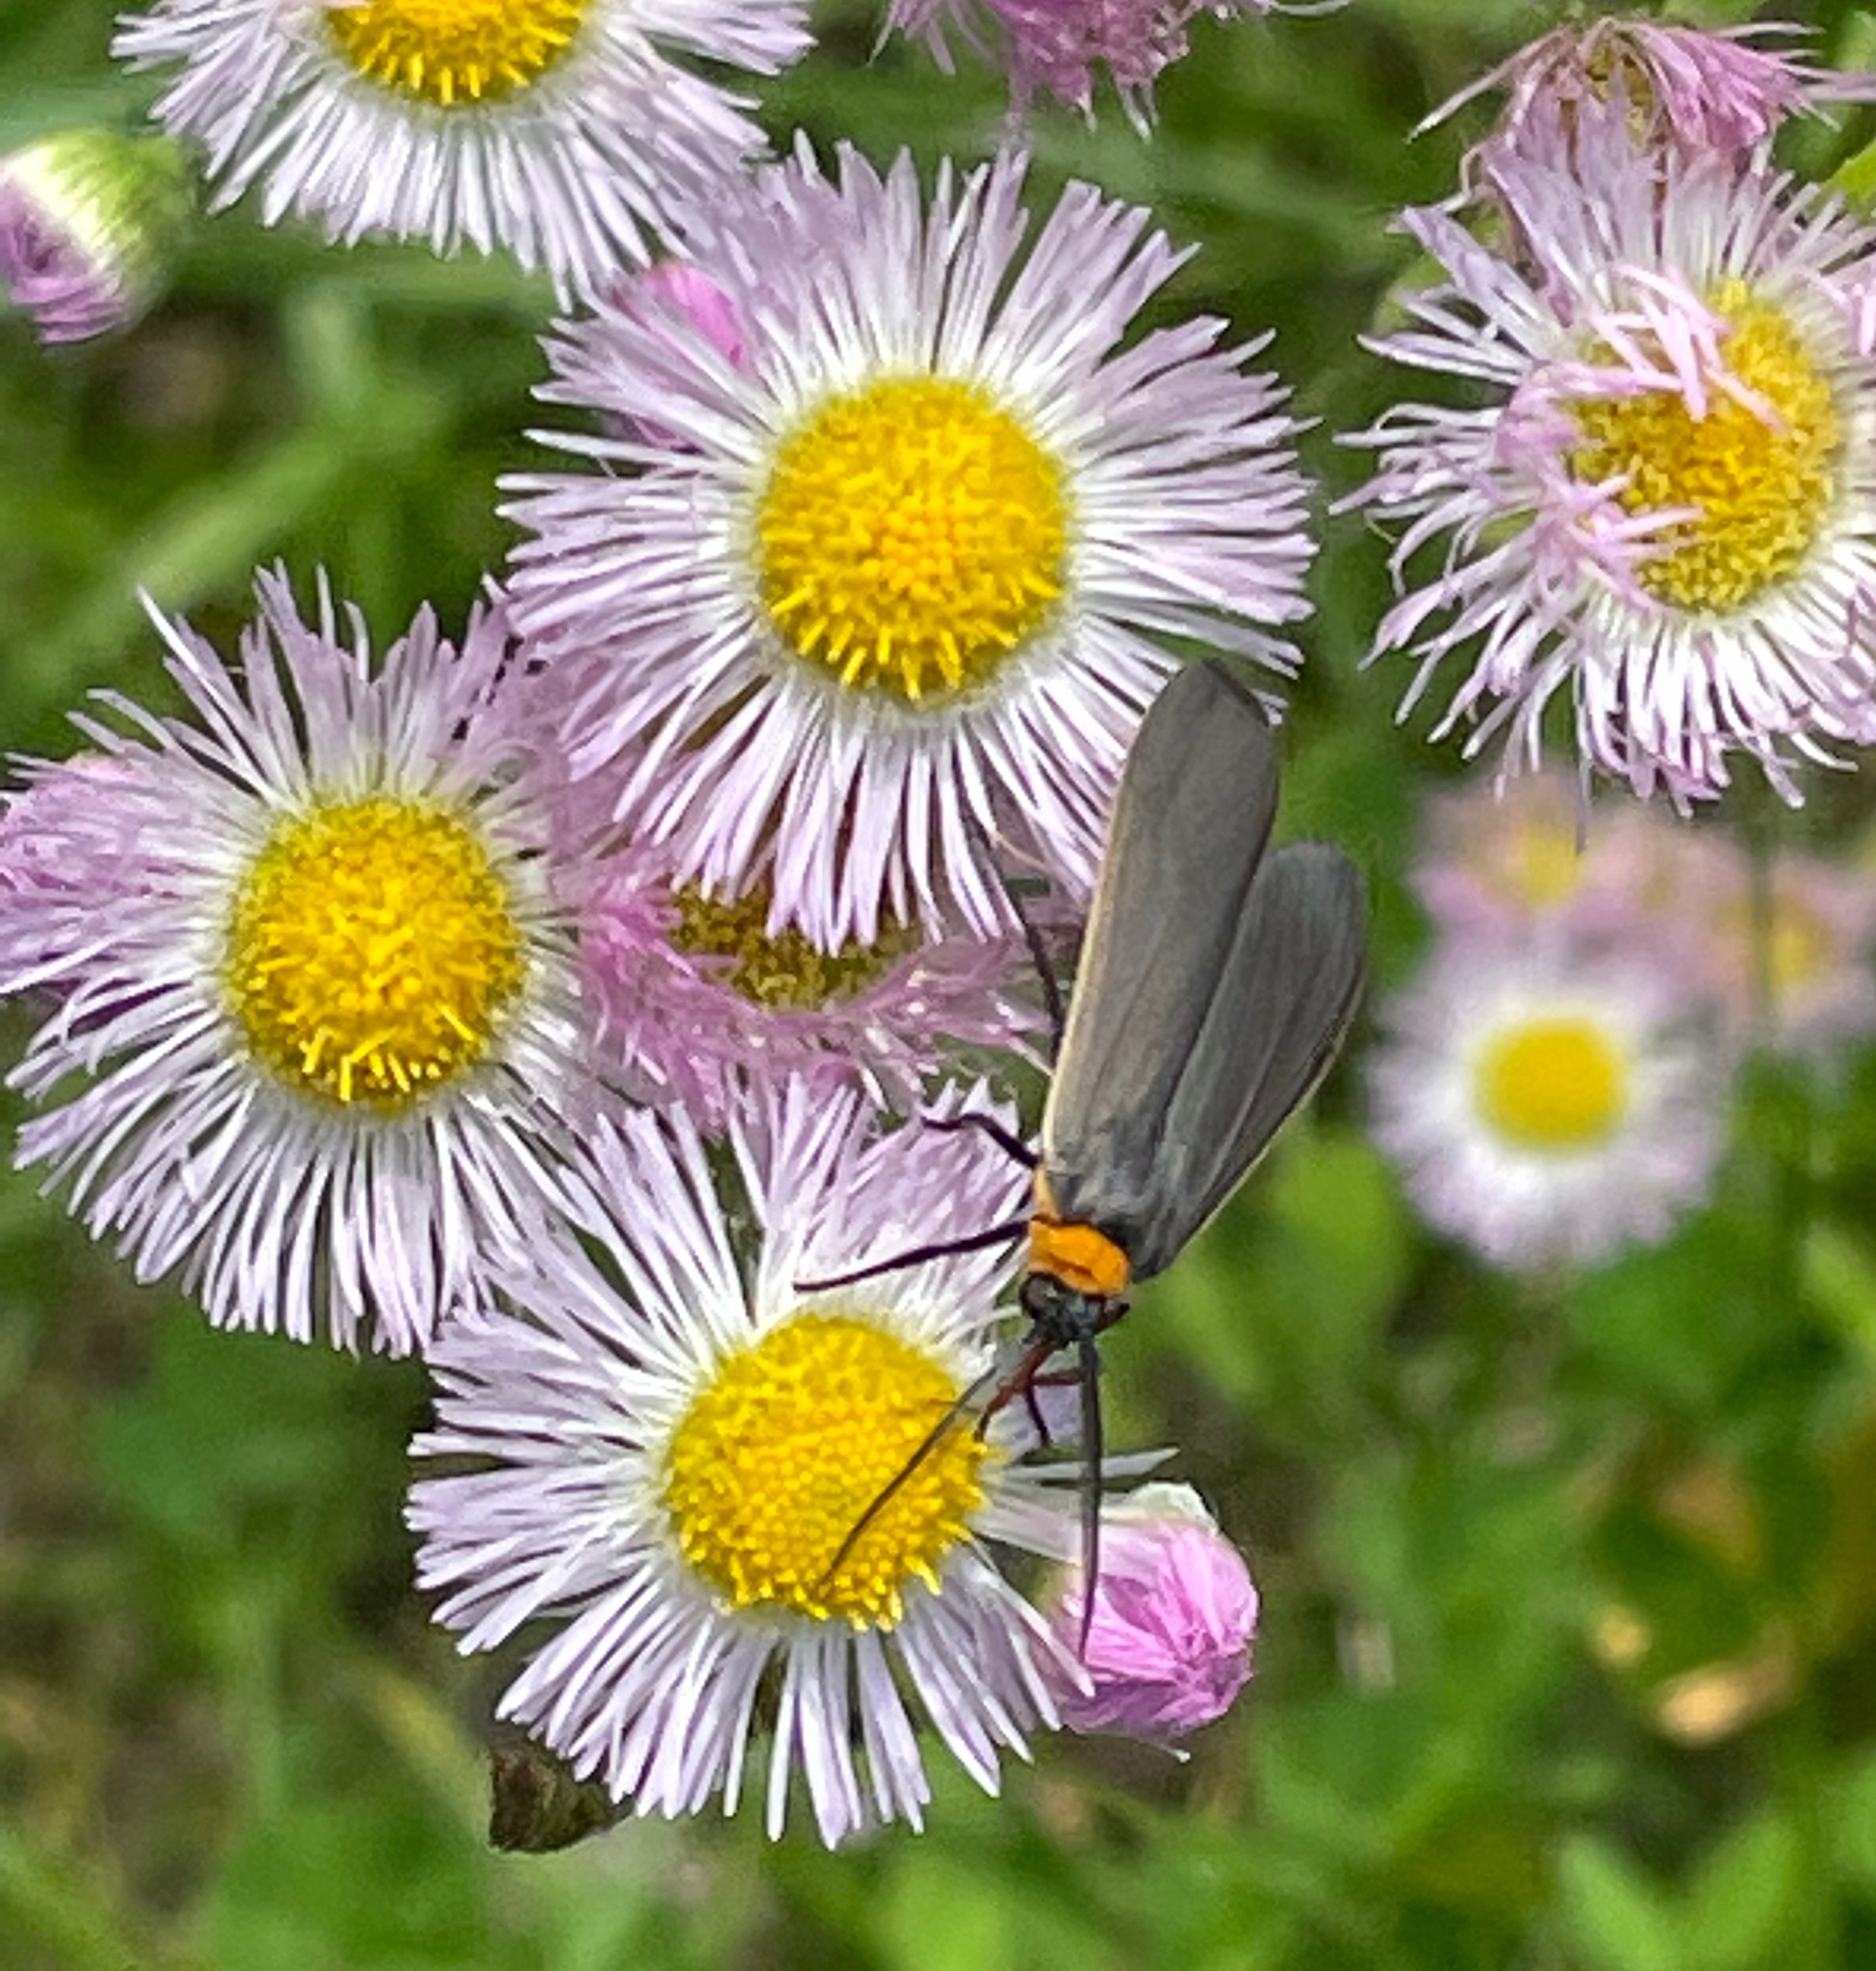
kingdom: Animalia
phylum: Arthropoda
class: Insecta
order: Lepidoptera
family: Erebidae
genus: Cisseps
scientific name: Cisseps fulvicollis
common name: Yellow-collared scape moth
